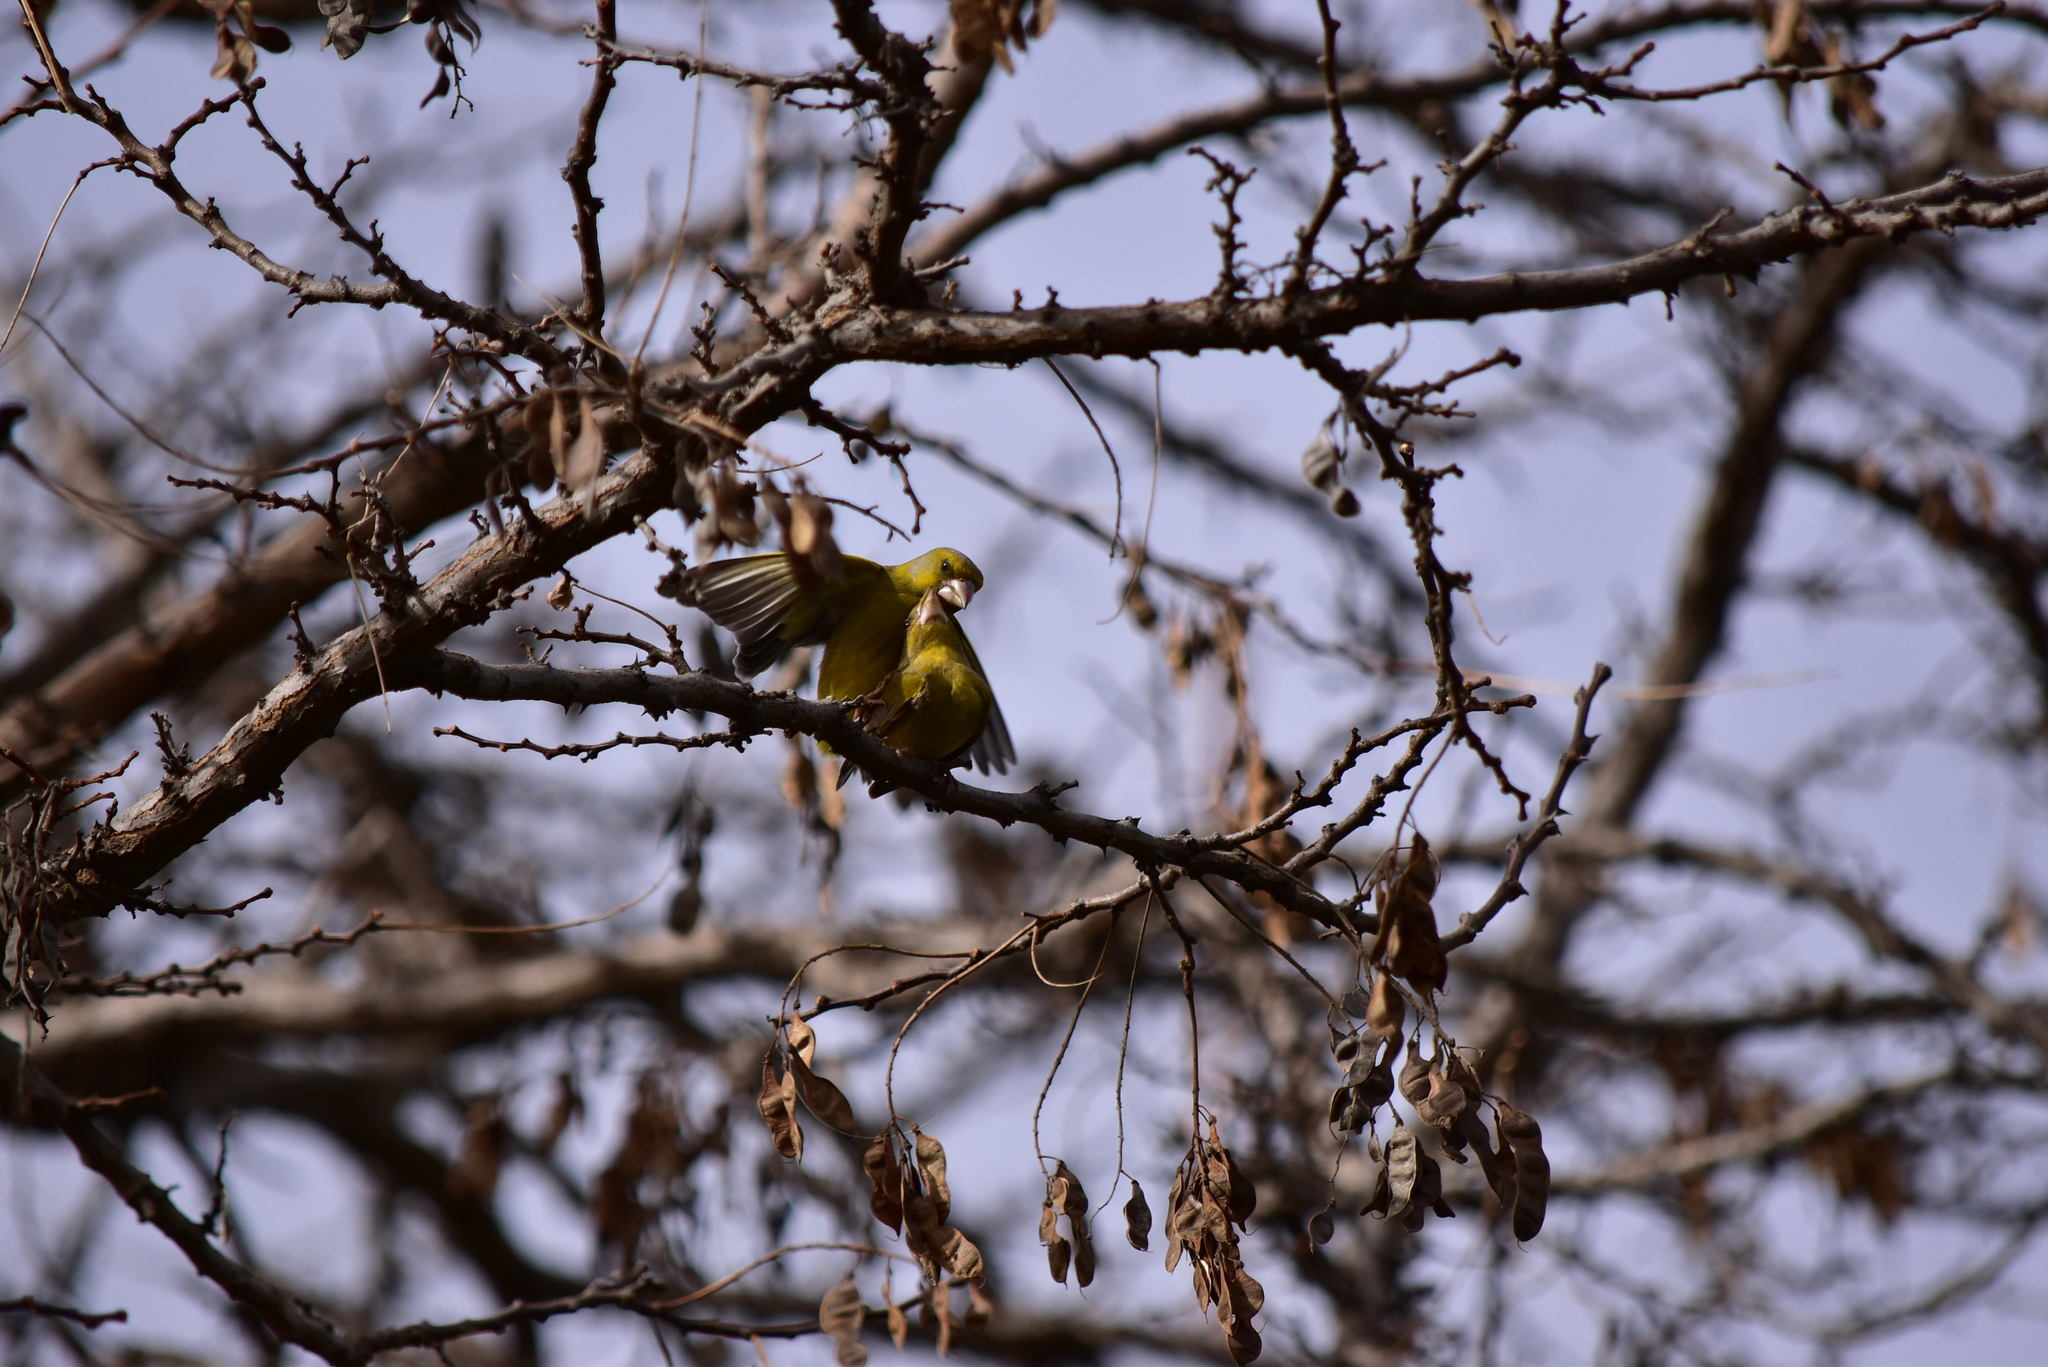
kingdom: Plantae
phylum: Tracheophyta
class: Liliopsida
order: Poales
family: Poaceae
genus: Chloris
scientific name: Chloris chloris
